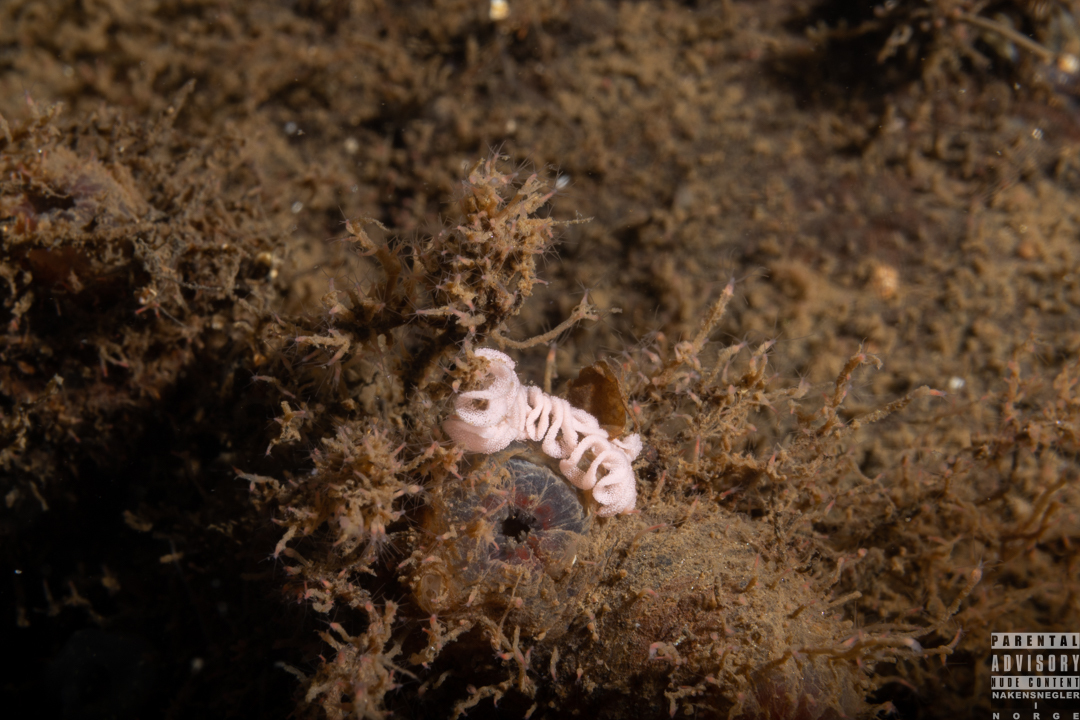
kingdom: Animalia
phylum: Mollusca
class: Gastropoda
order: Nudibranchia
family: Dotidae
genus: Doto
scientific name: Doto fragilis
